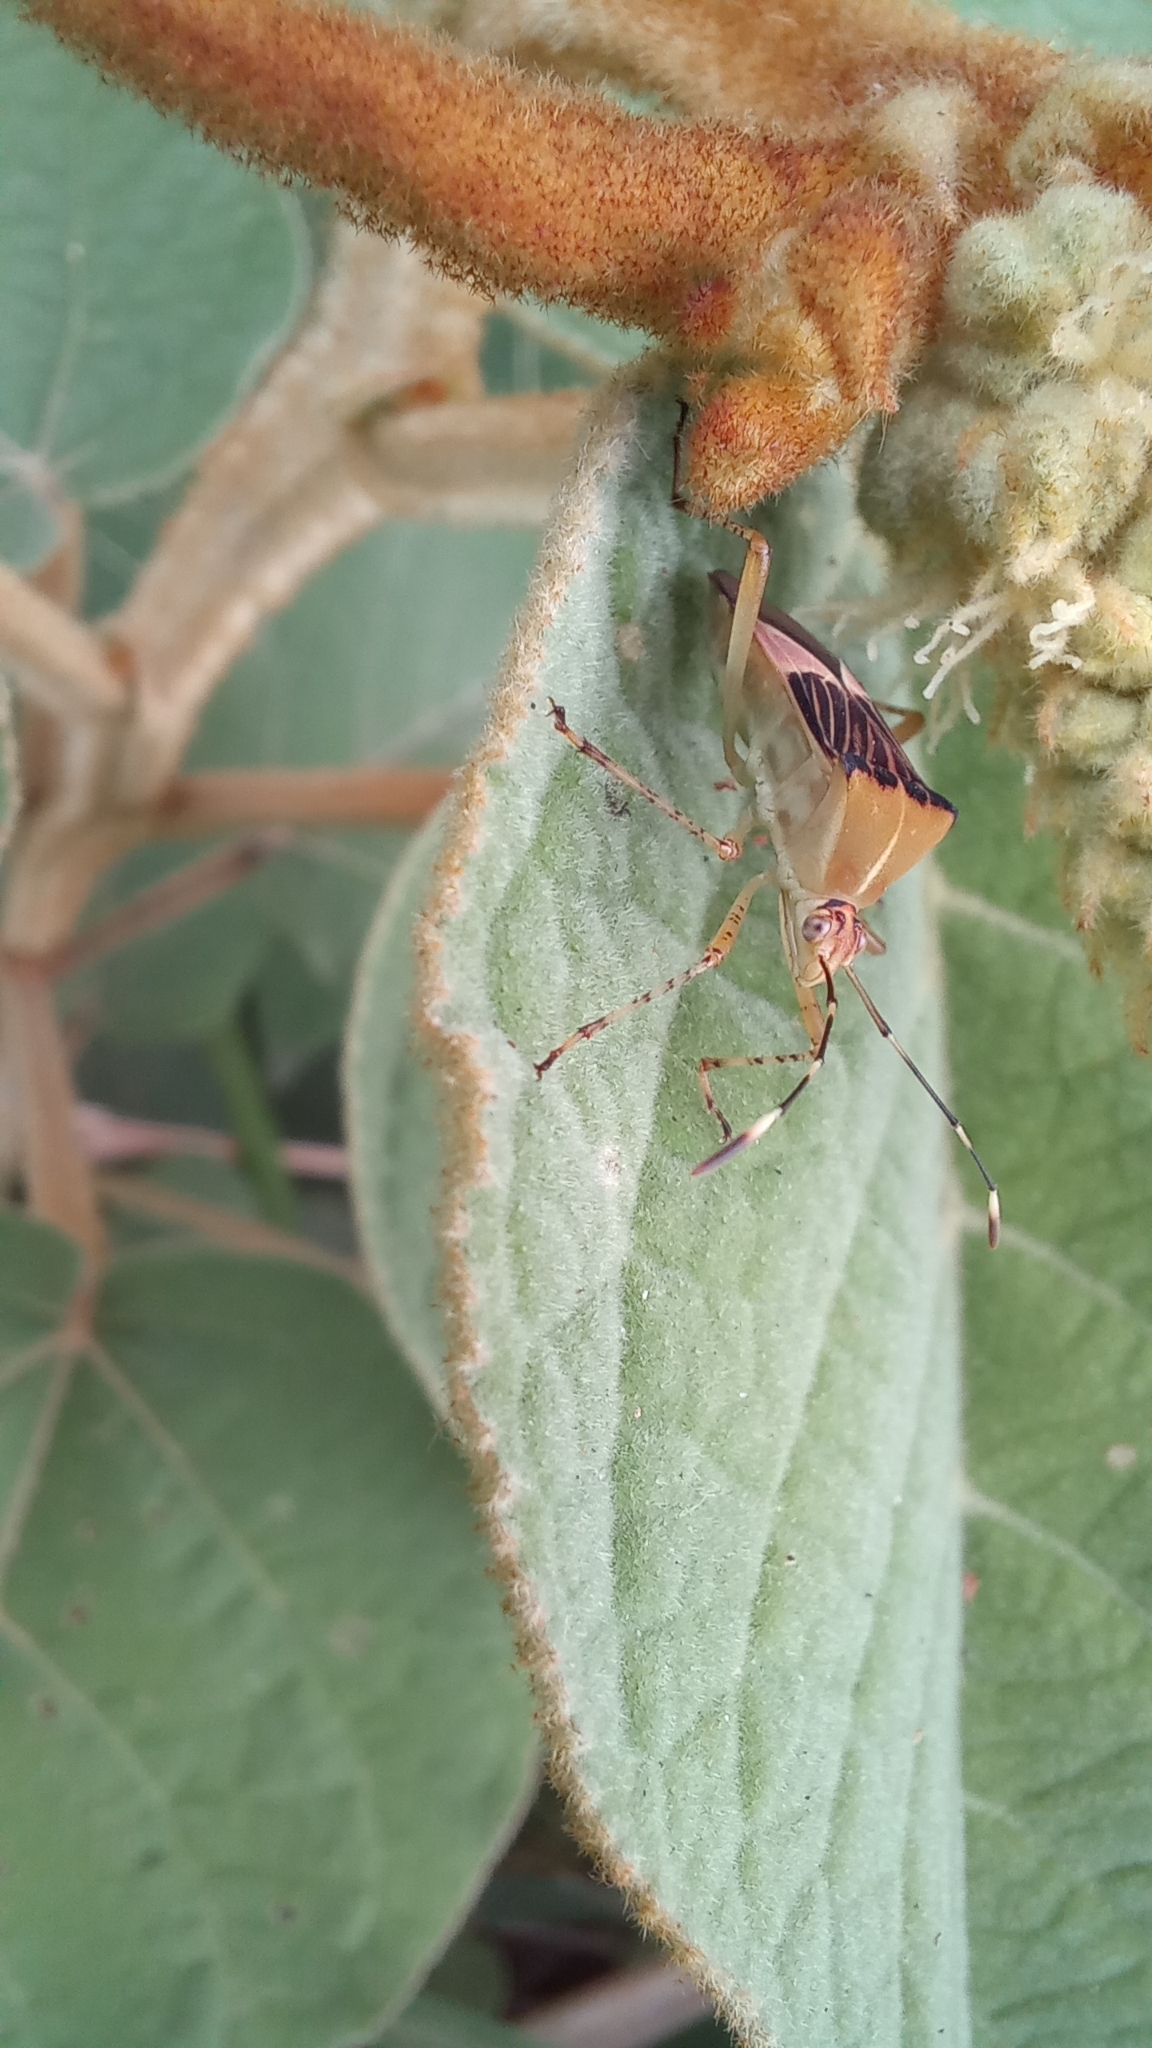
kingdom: Animalia
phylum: Arthropoda
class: Insecta
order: Hemiptera
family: Coreidae
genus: Hypselonotus
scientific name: Hypselonotus fulvus
